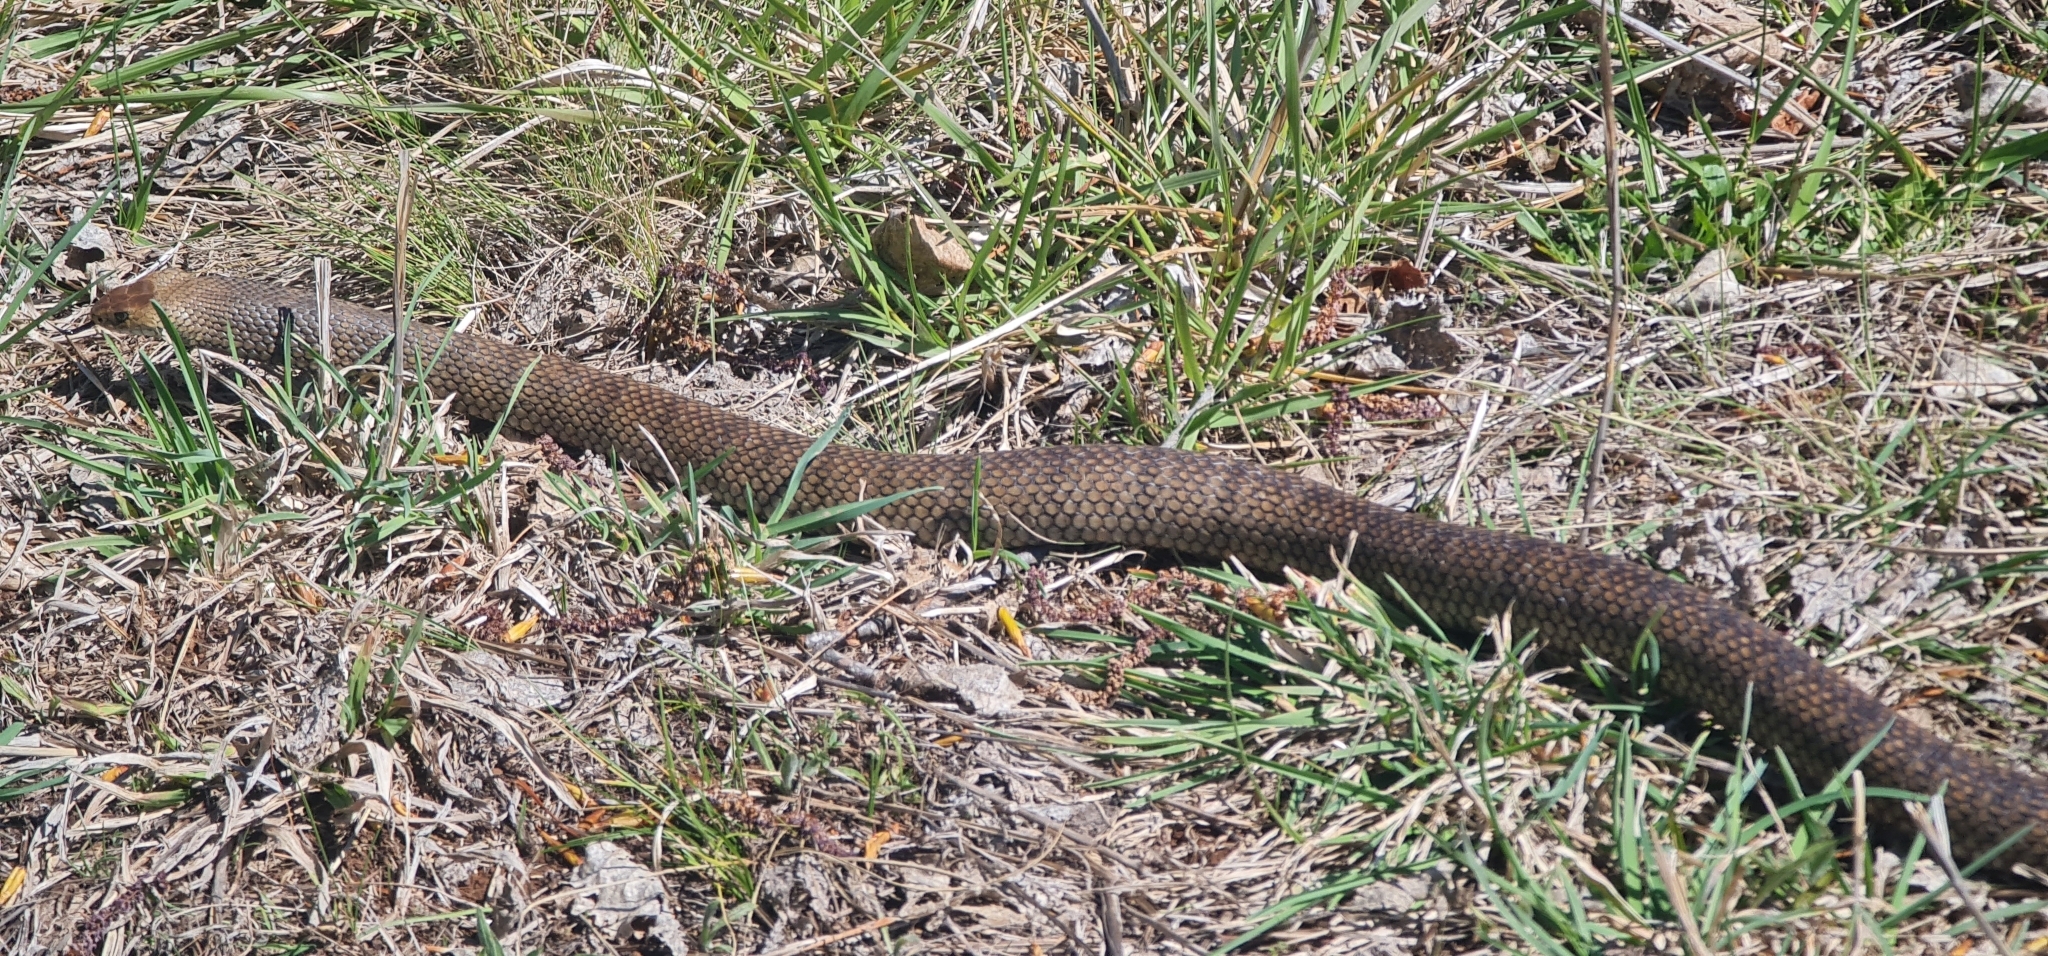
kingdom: Animalia
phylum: Chordata
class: Squamata
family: Elapidae
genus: Pseudonaja
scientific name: Pseudonaja textilis
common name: Eastern brown snake
